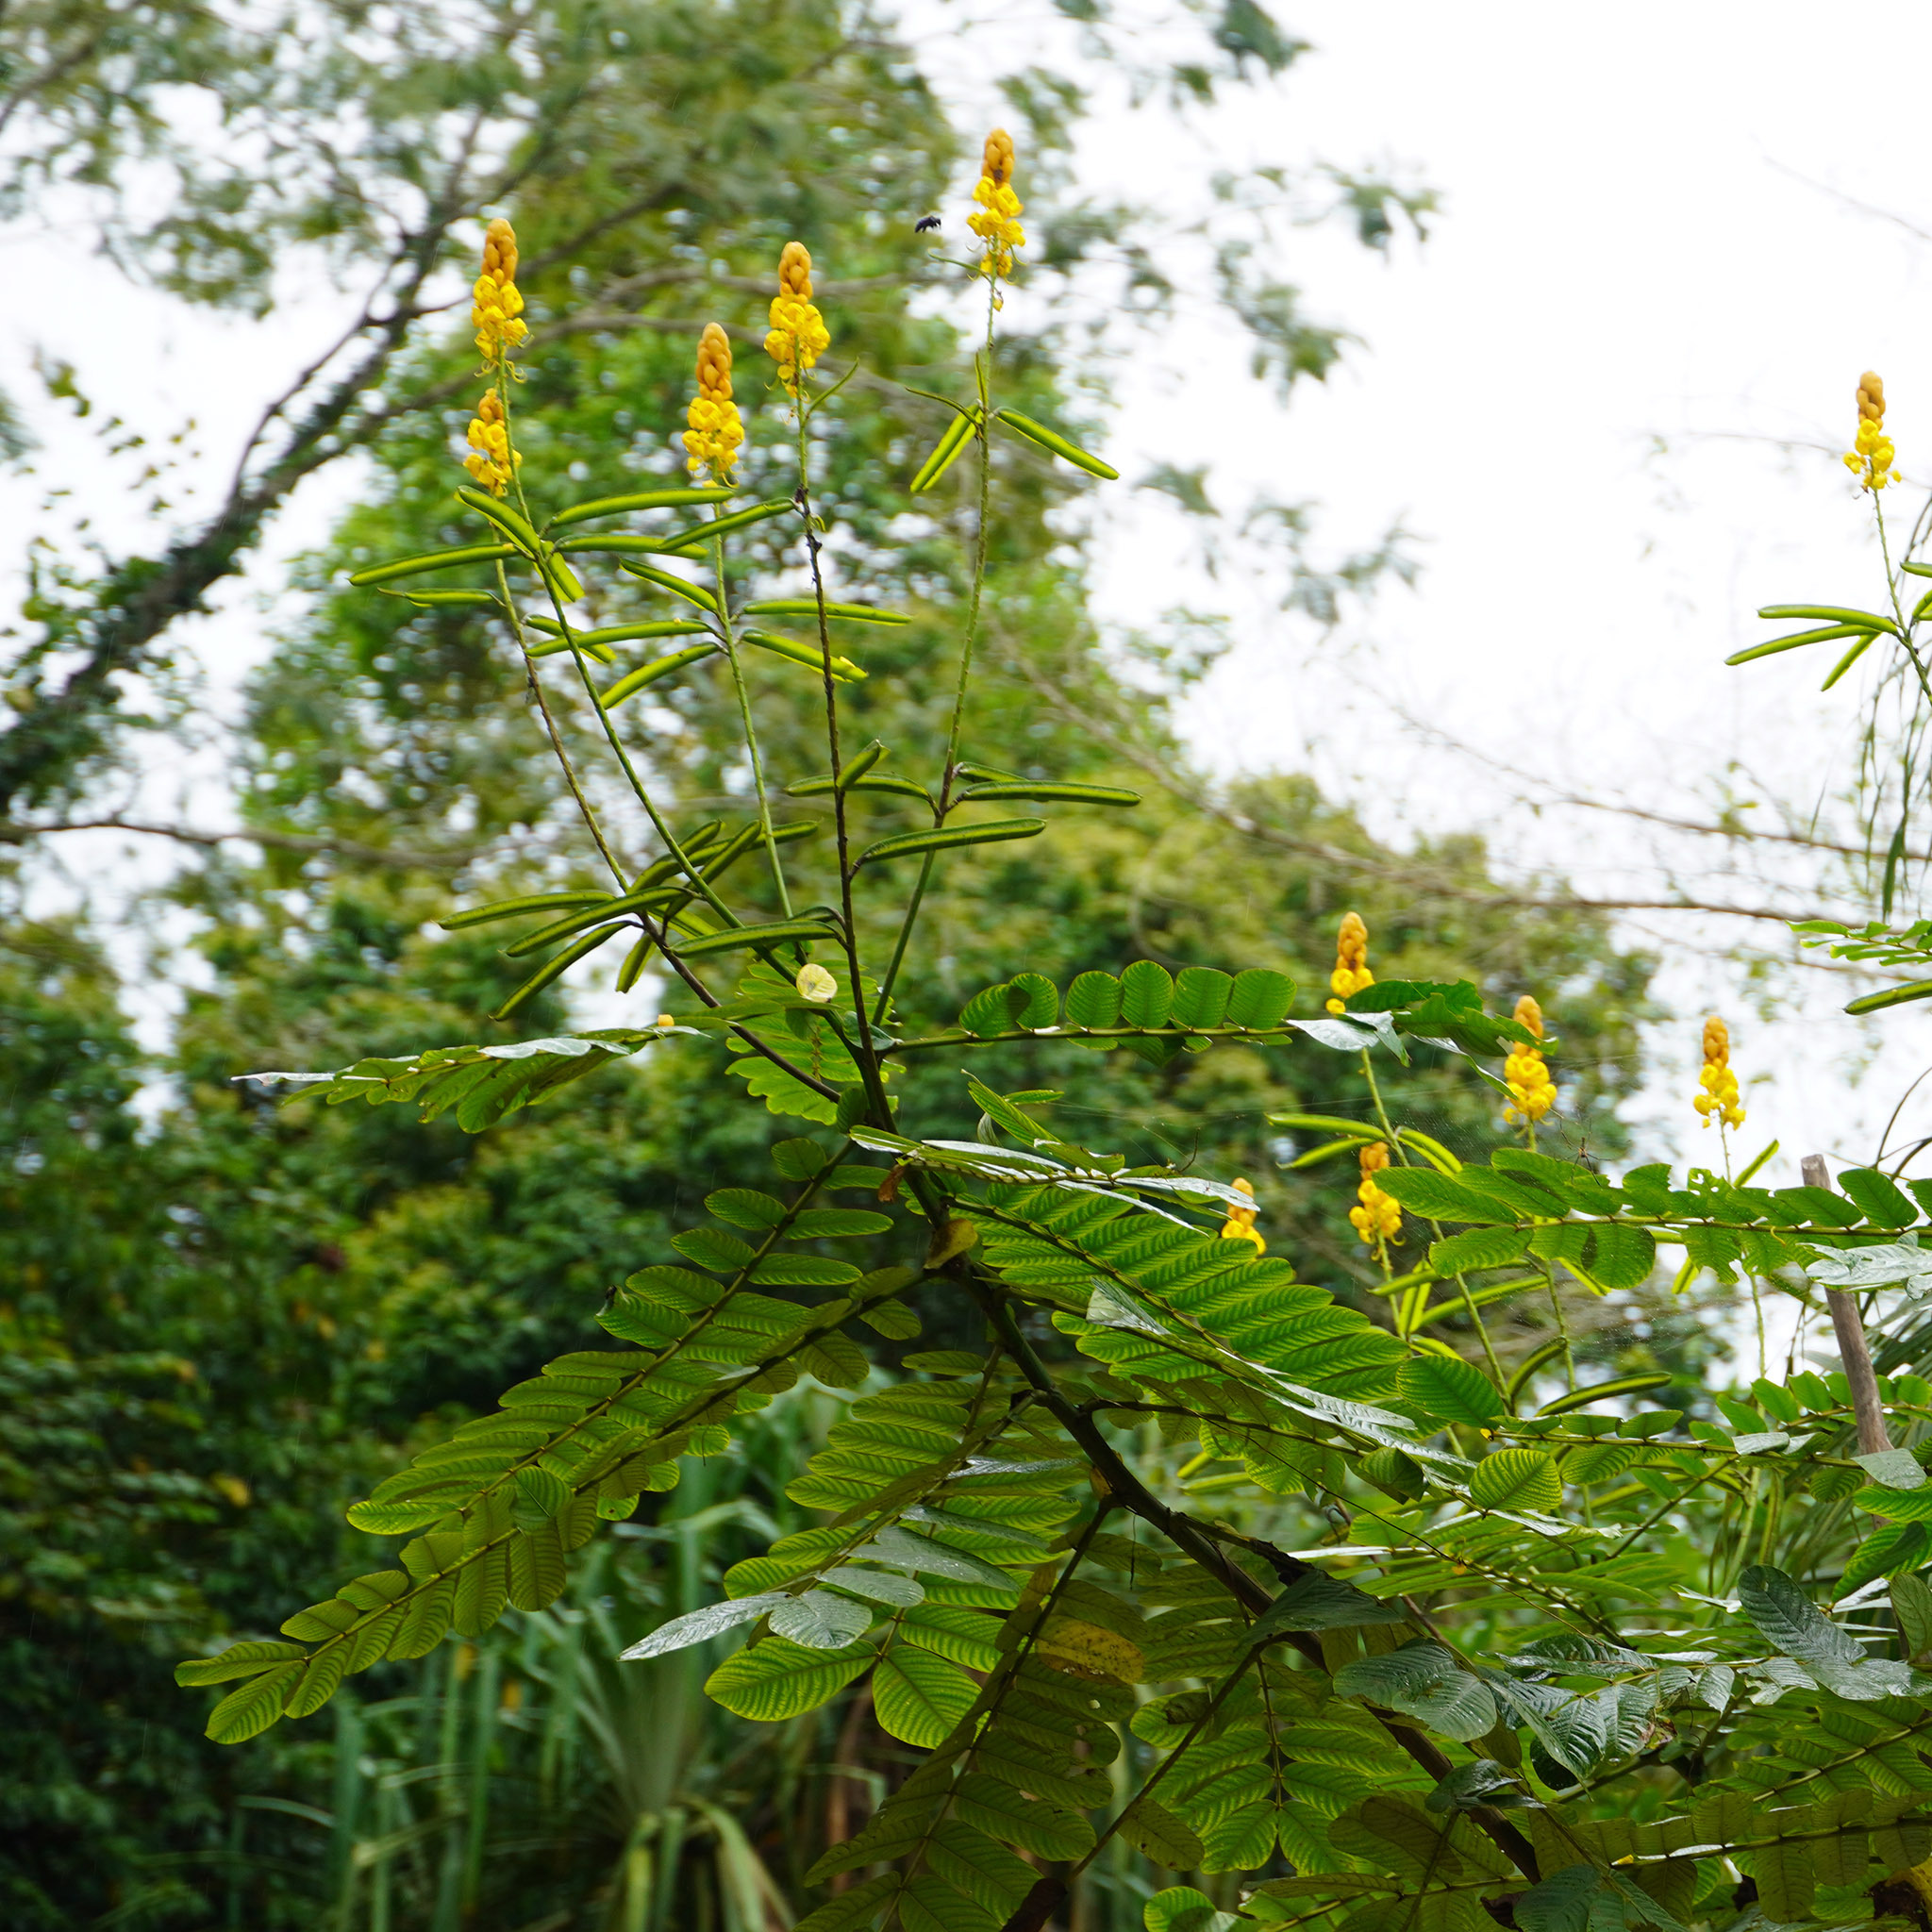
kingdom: Plantae
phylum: Tracheophyta
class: Magnoliopsida
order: Fabales
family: Fabaceae
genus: Senna
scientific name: Senna alata
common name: Emperor's candlesticks
